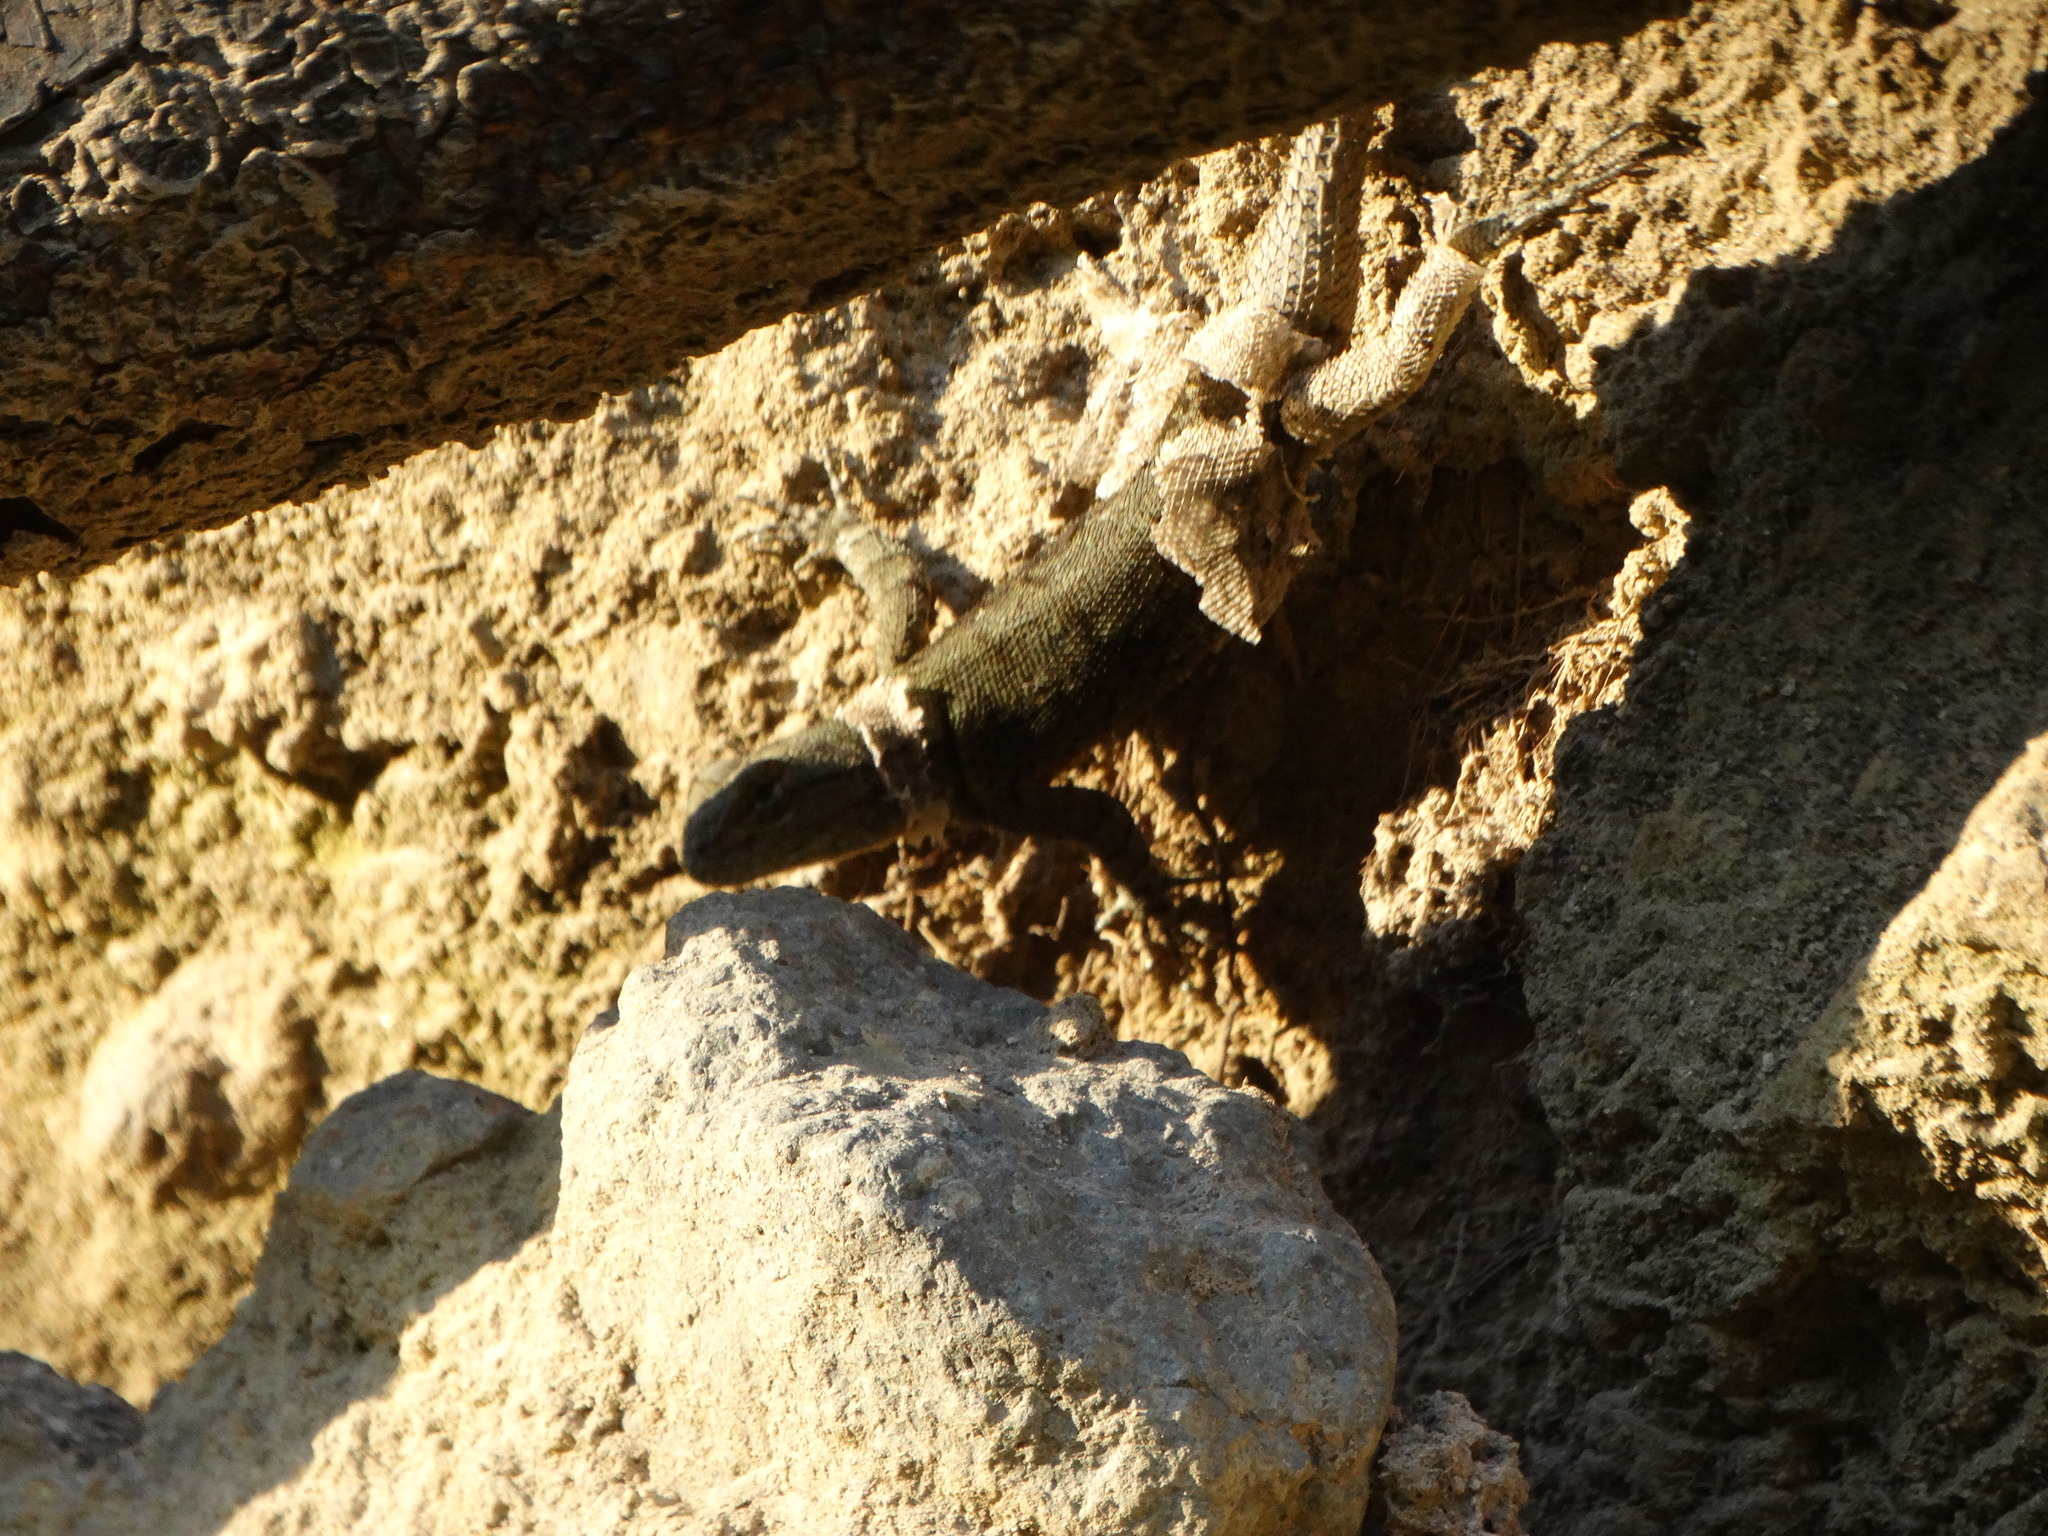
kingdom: Animalia
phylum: Chordata
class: Squamata
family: Phrynosomatidae
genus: Sceloporus
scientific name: Sceloporus grammicus
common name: Mesquite lizard
